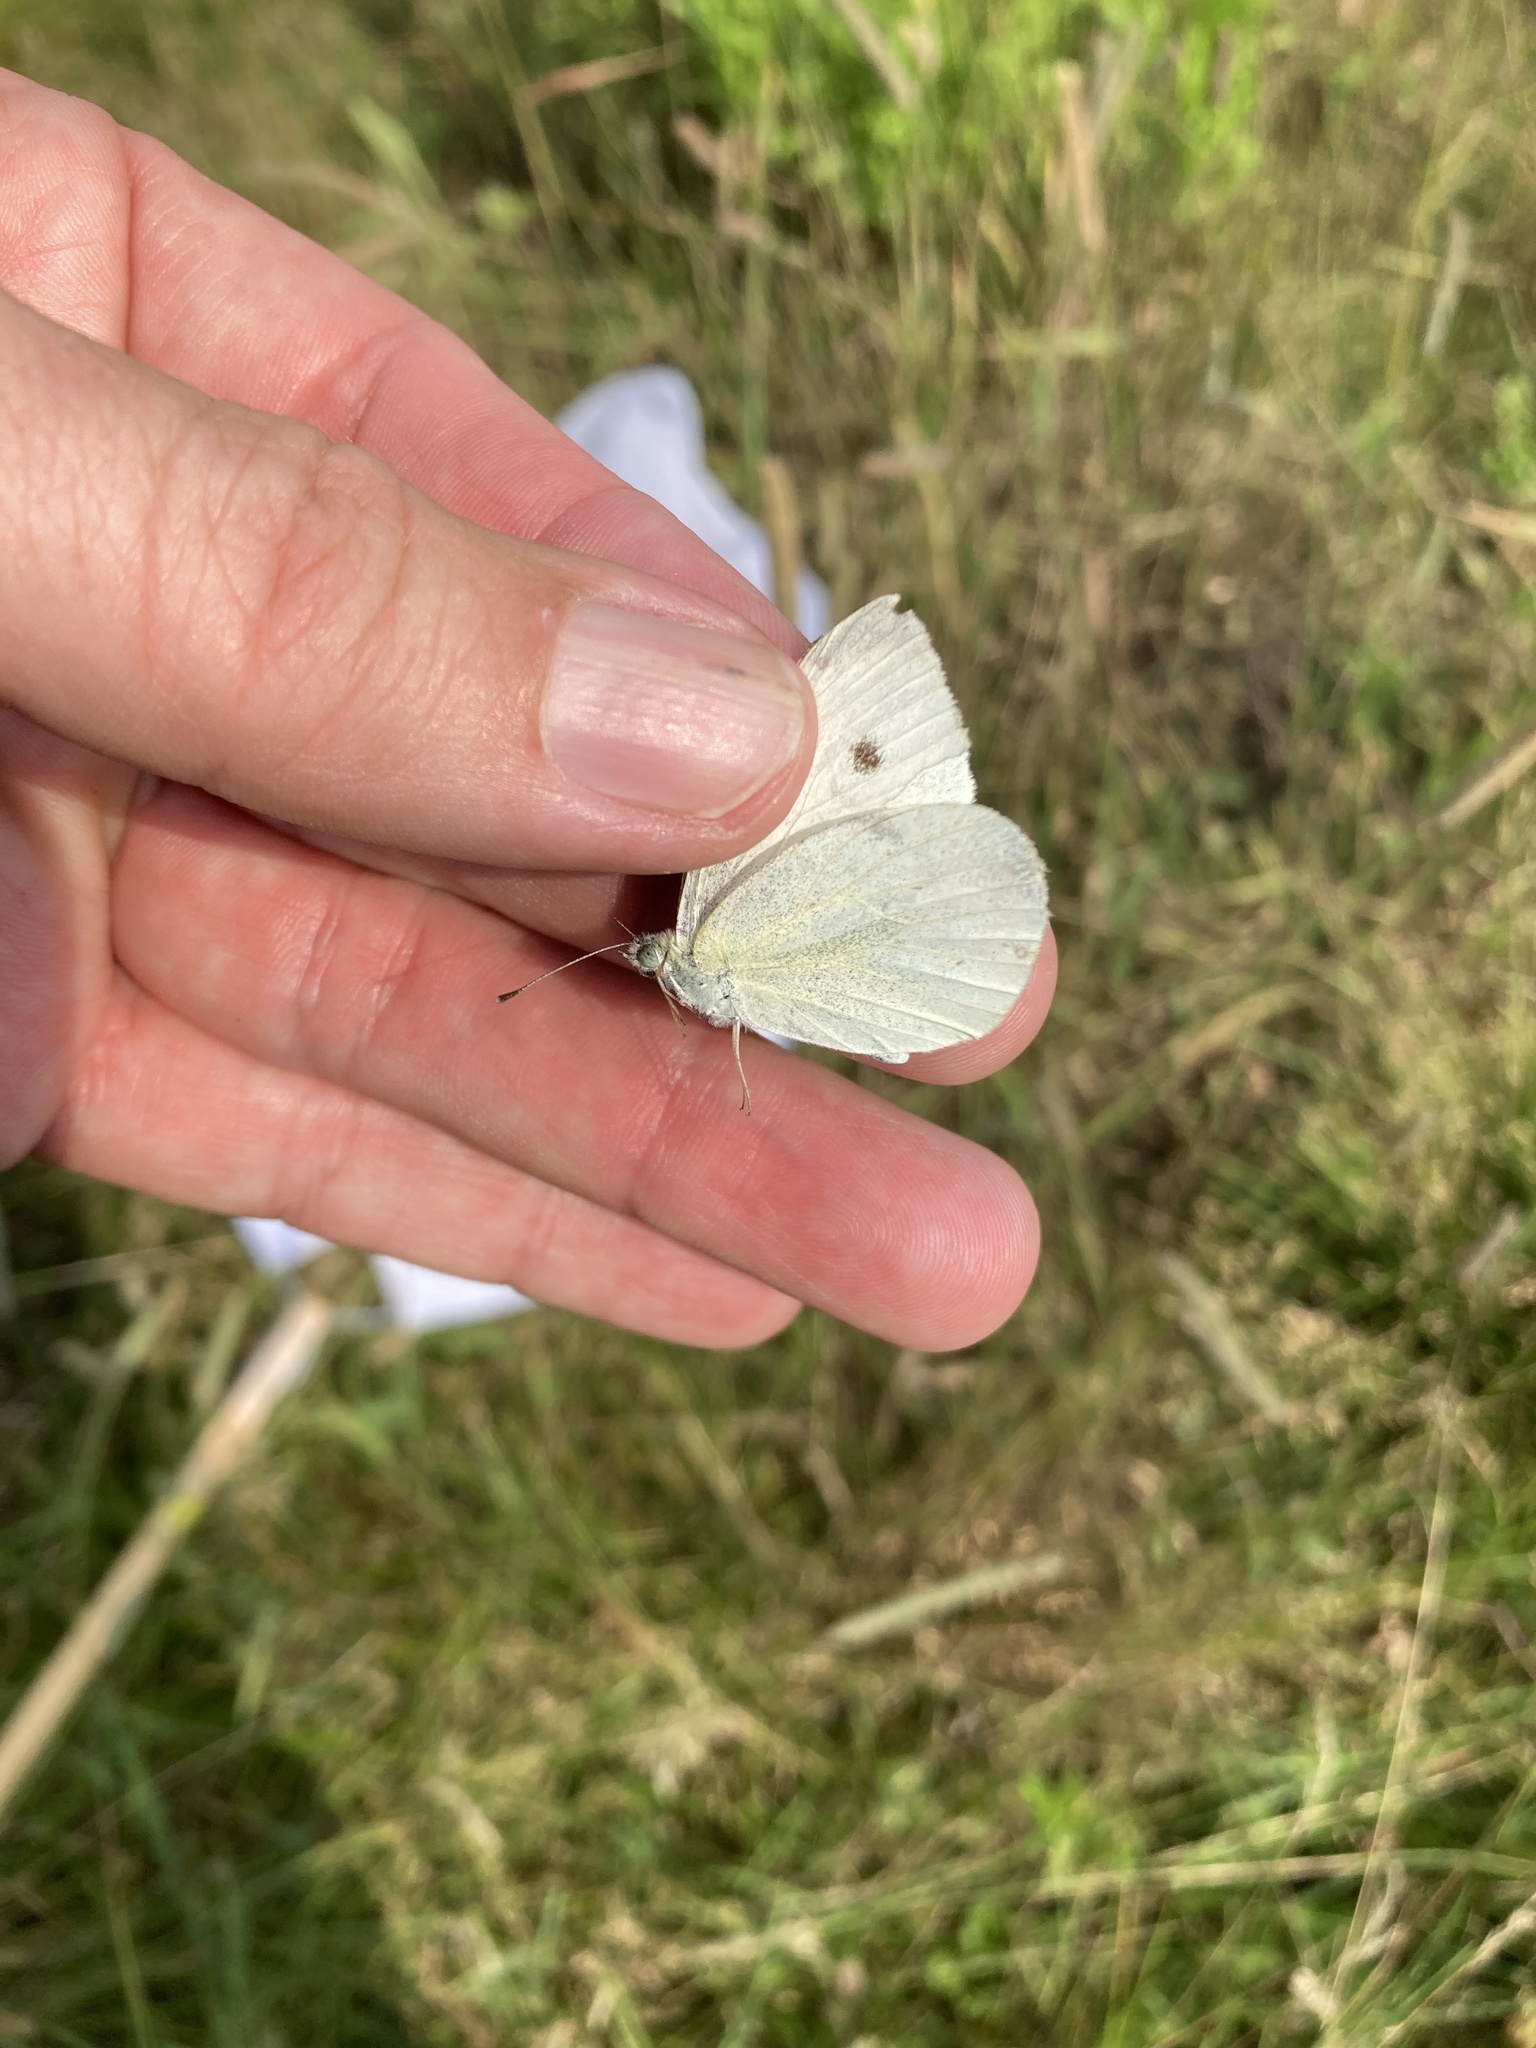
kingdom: Animalia
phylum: Arthropoda
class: Insecta
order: Lepidoptera
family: Pieridae
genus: Pieris
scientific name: Pieris rapae
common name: Small white
